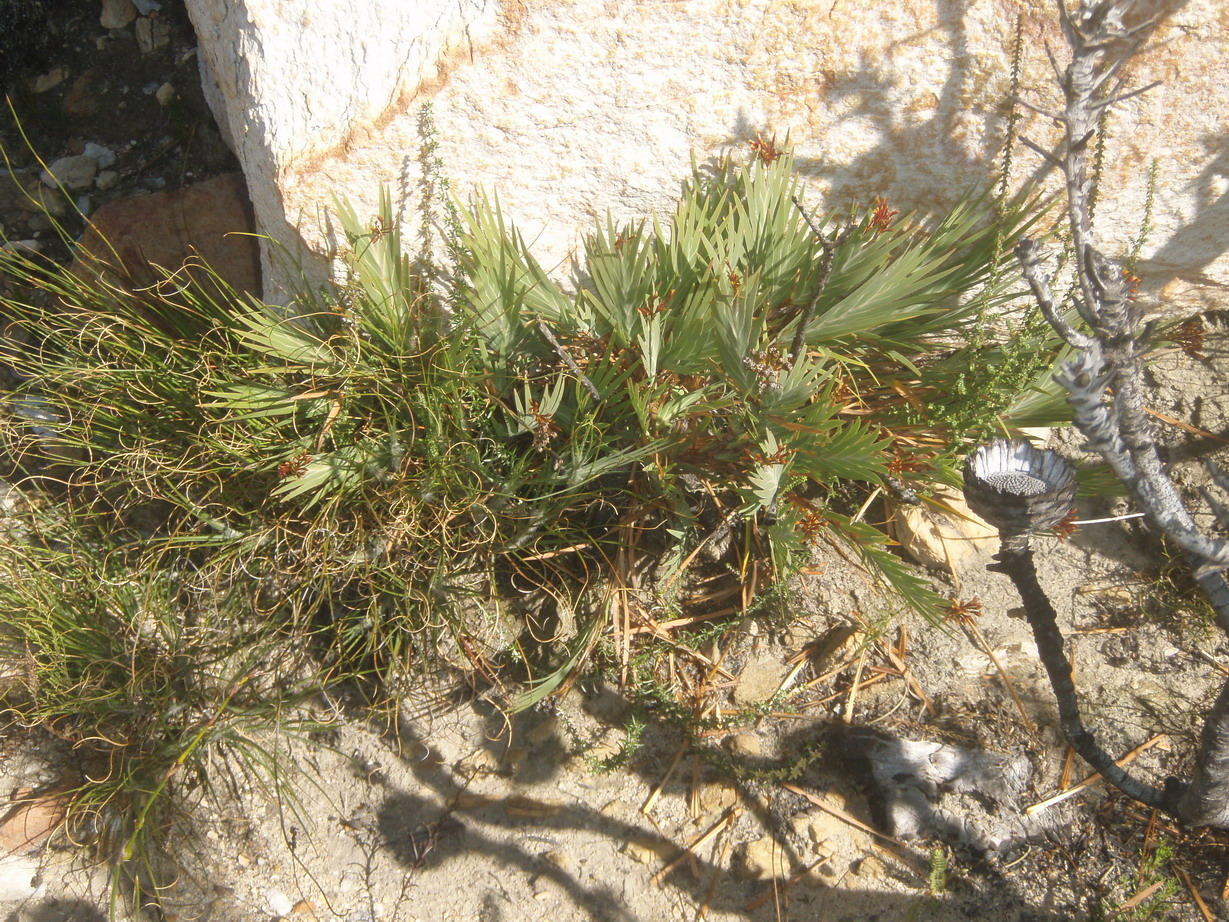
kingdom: Plantae
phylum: Tracheophyta
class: Liliopsida
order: Asparagales
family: Iridaceae
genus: Nivenia
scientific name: Nivenia binata
